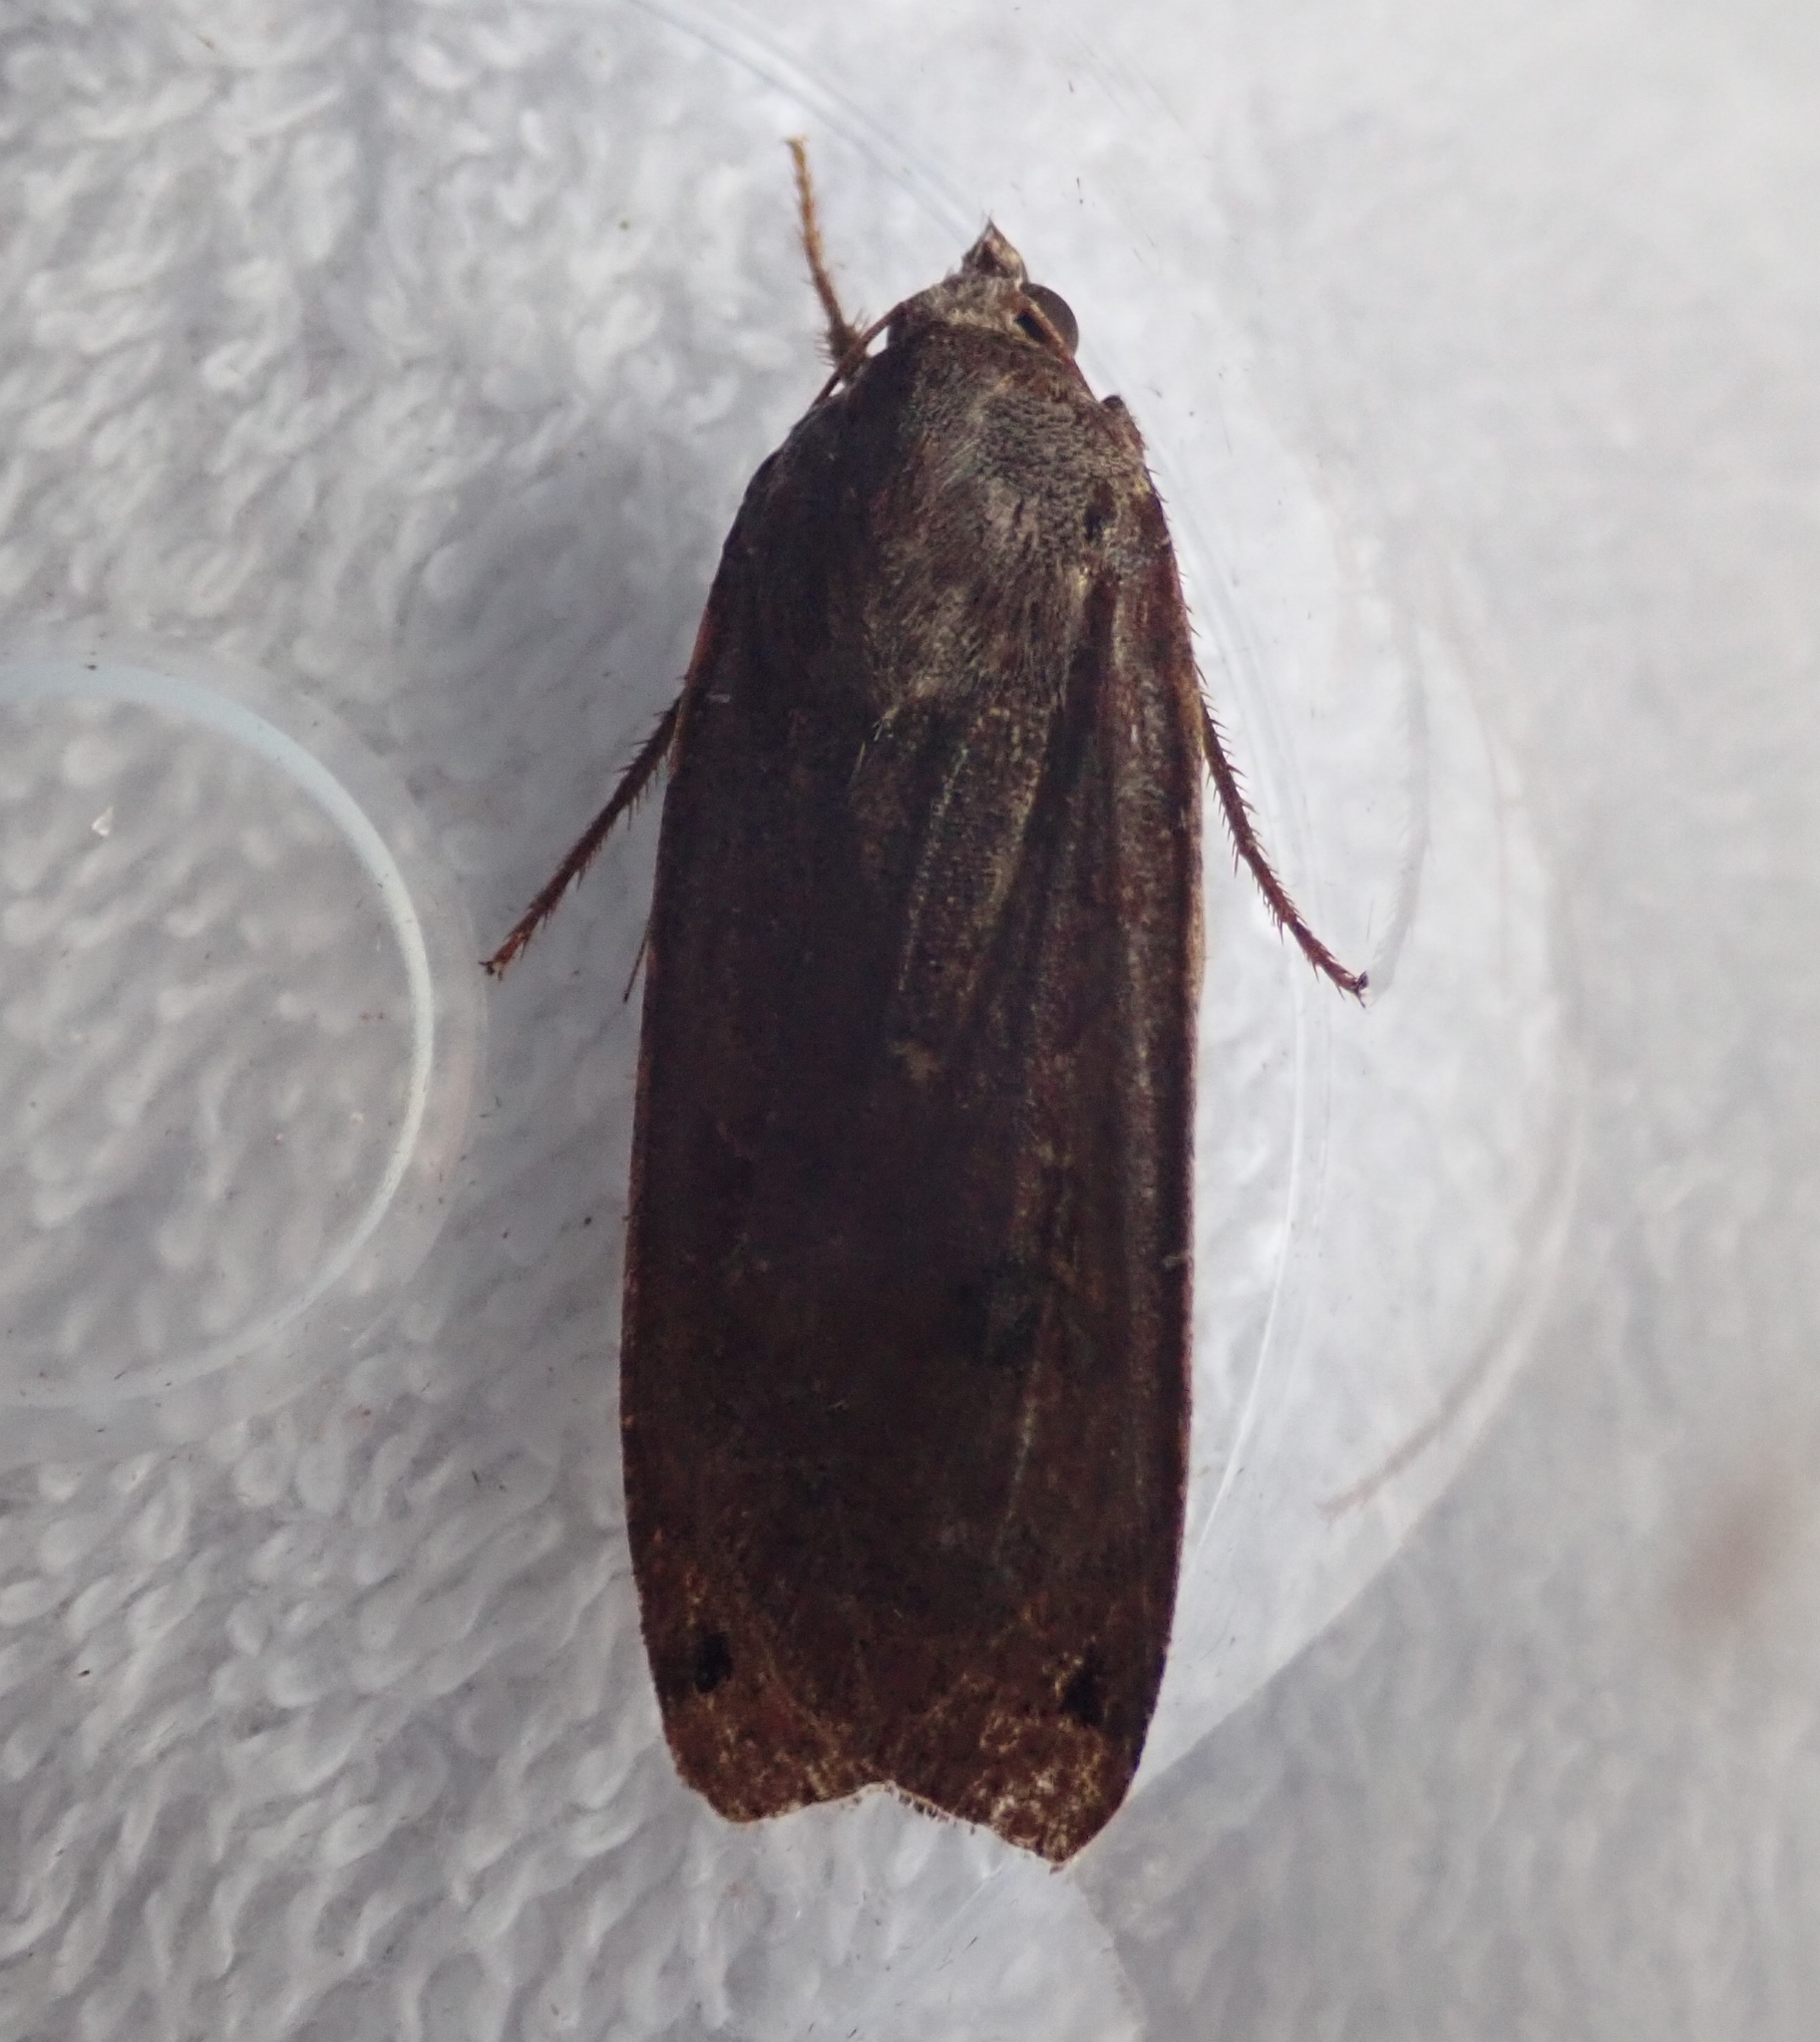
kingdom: Animalia
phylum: Arthropoda
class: Insecta
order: Lepidoptera
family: Noctuidae
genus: Noctua
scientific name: Noctua pronuba
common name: Large yellow underwing
